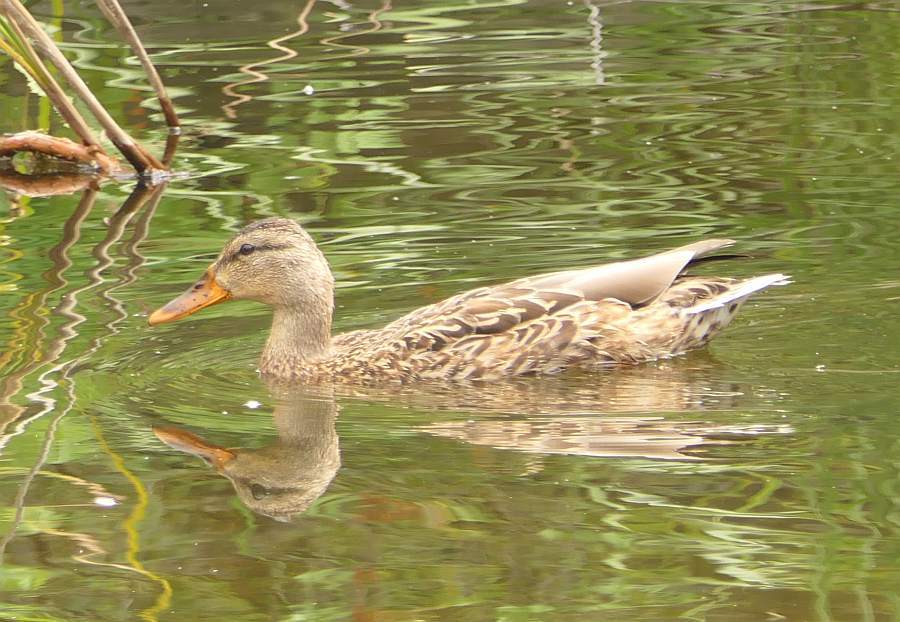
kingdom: Animalia
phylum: Chordata
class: Aves
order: Anseriformes
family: Anatidae
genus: Anas
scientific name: Anas platyrhynchos
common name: Mallard
